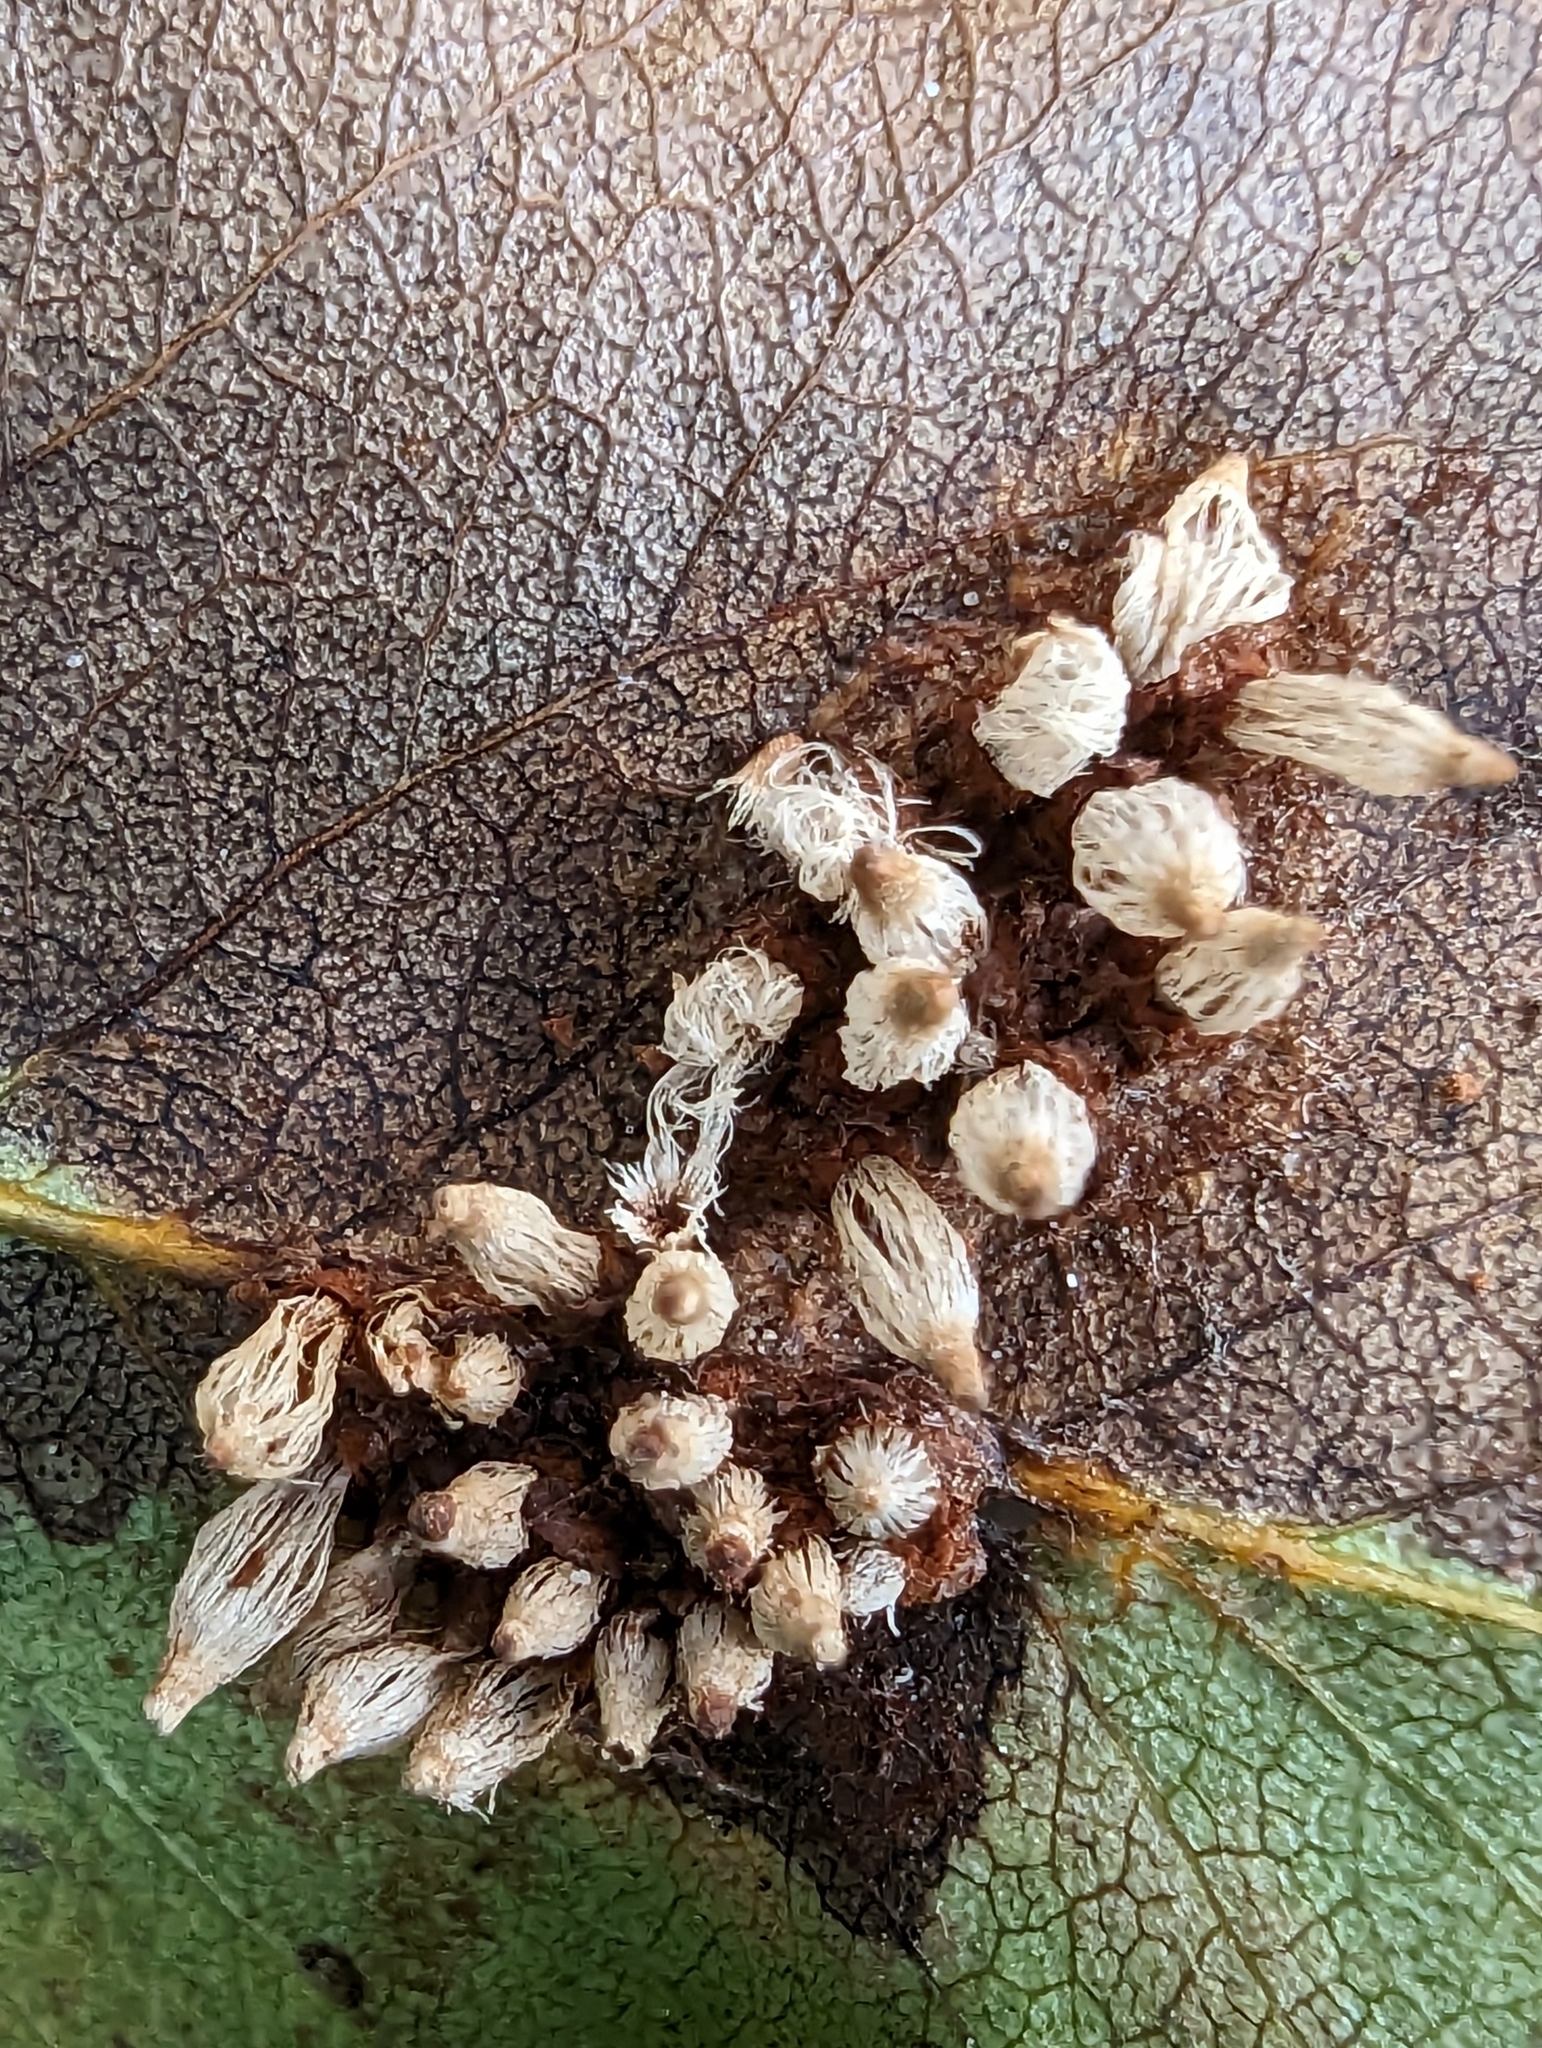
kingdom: Fungi
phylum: Basidiomycota
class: Pucciniomycetes
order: Pucciniales
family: Gymnosporangiaceae
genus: Gymnosporangium
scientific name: Gymnosporangium sabinae
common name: Pear trellis rust fungus
